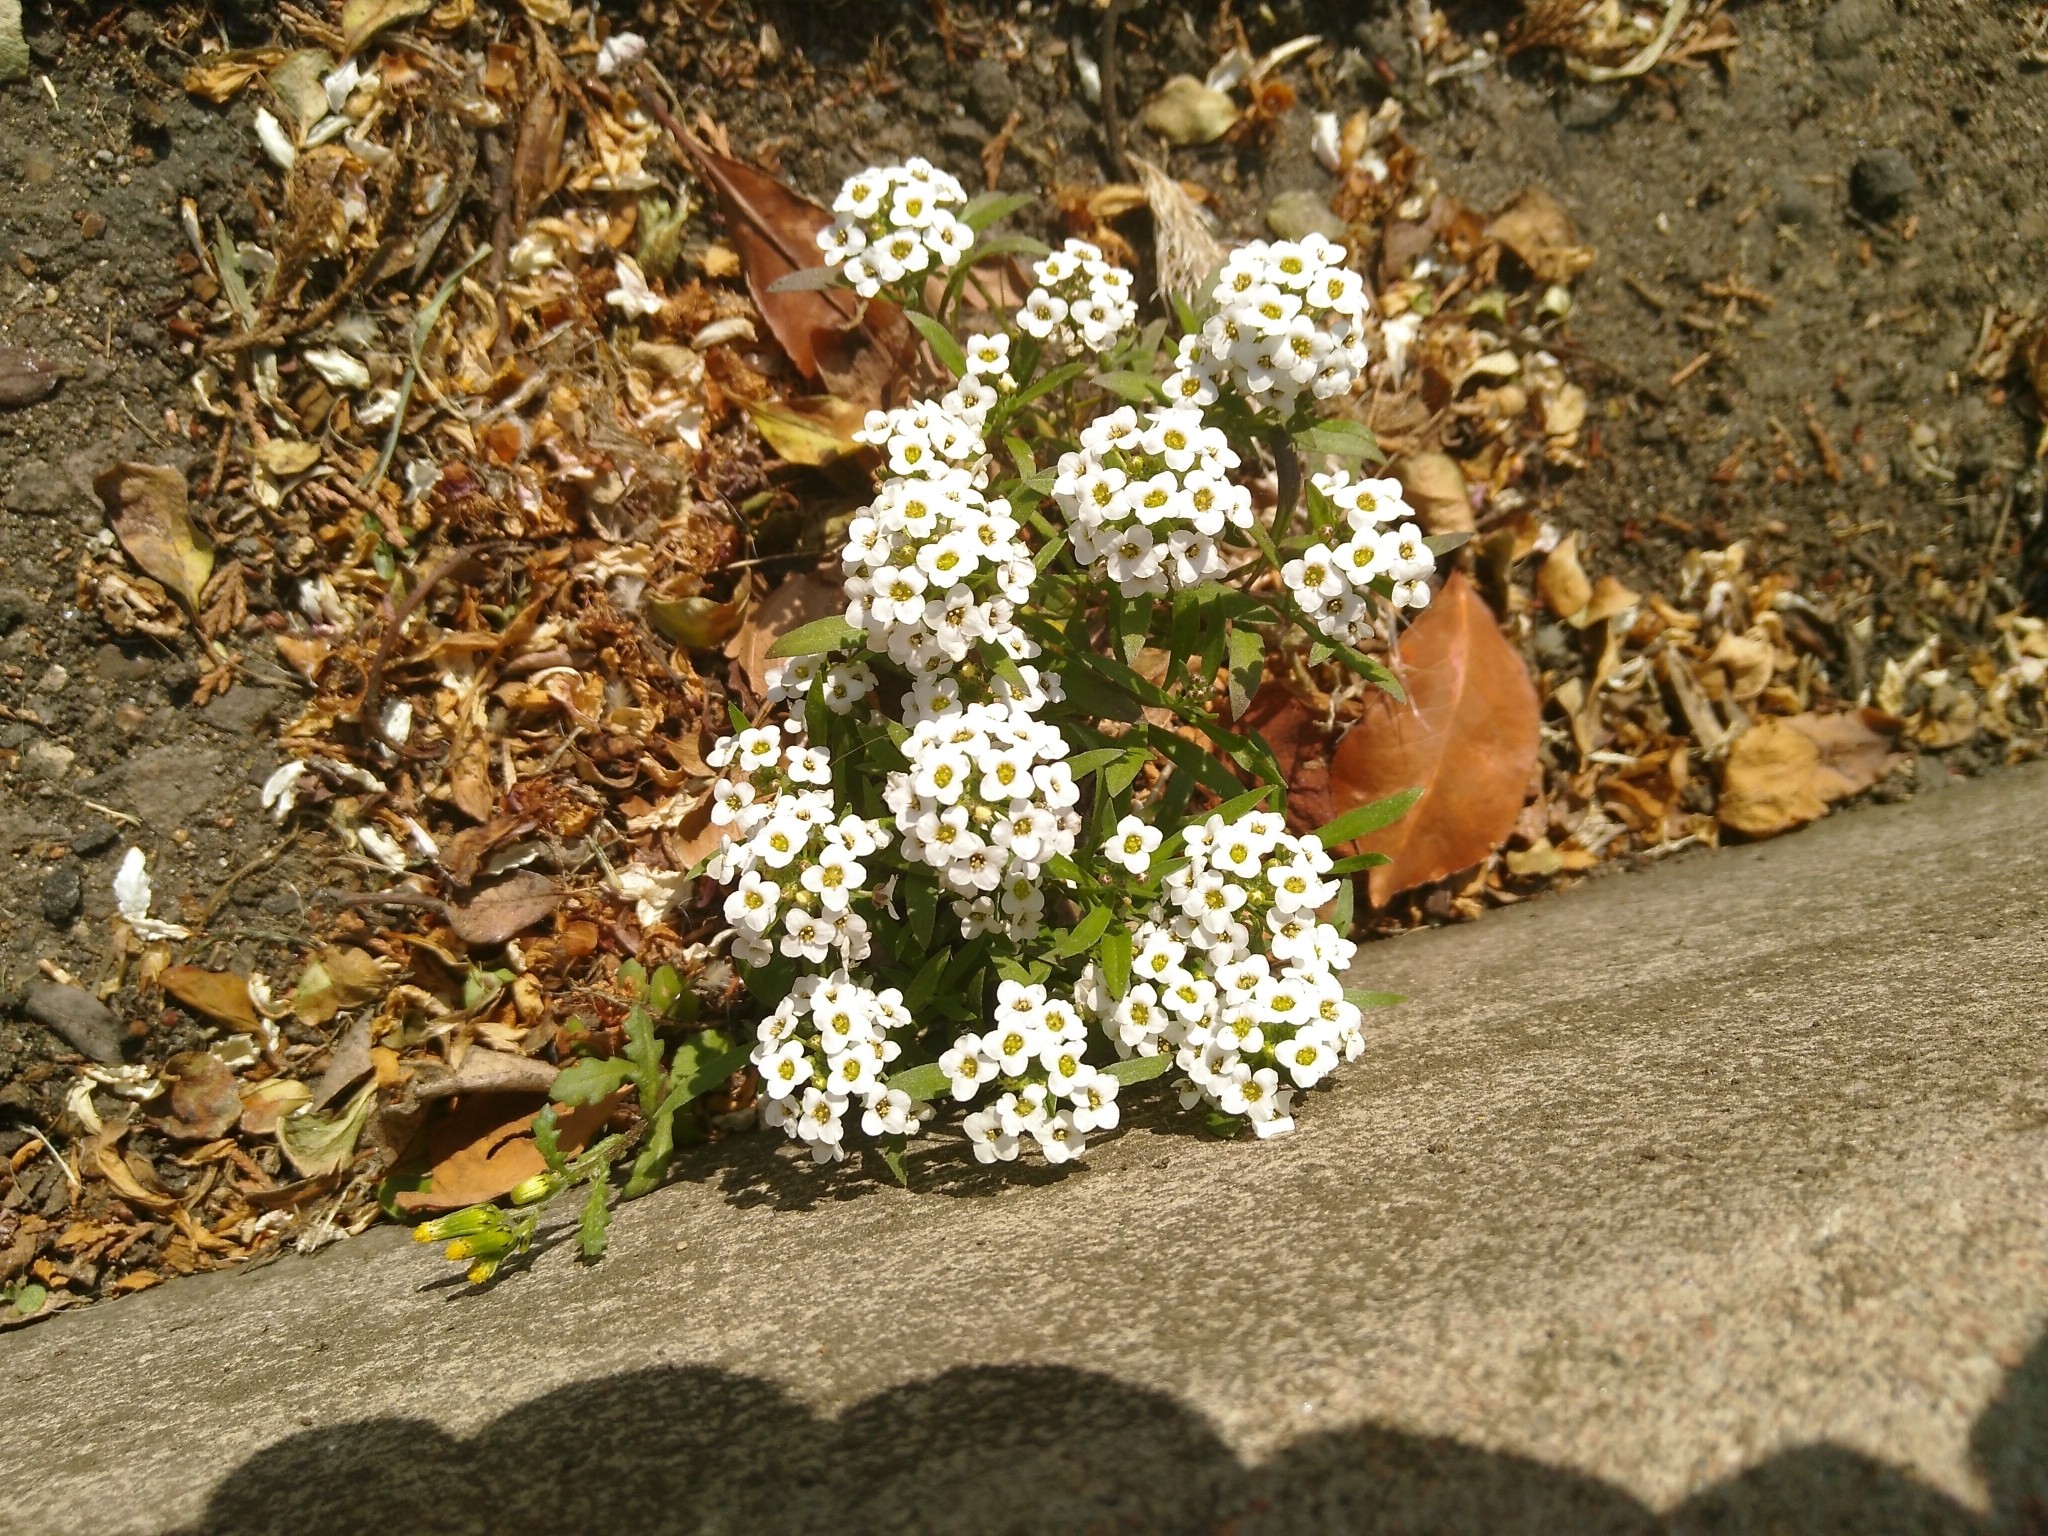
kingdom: Plantae
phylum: Tracheophyta
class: Magnoliopsida
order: Brassicales
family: Brassicaceae
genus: Lobularia
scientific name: Lobularia maritima
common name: Sweet alison
